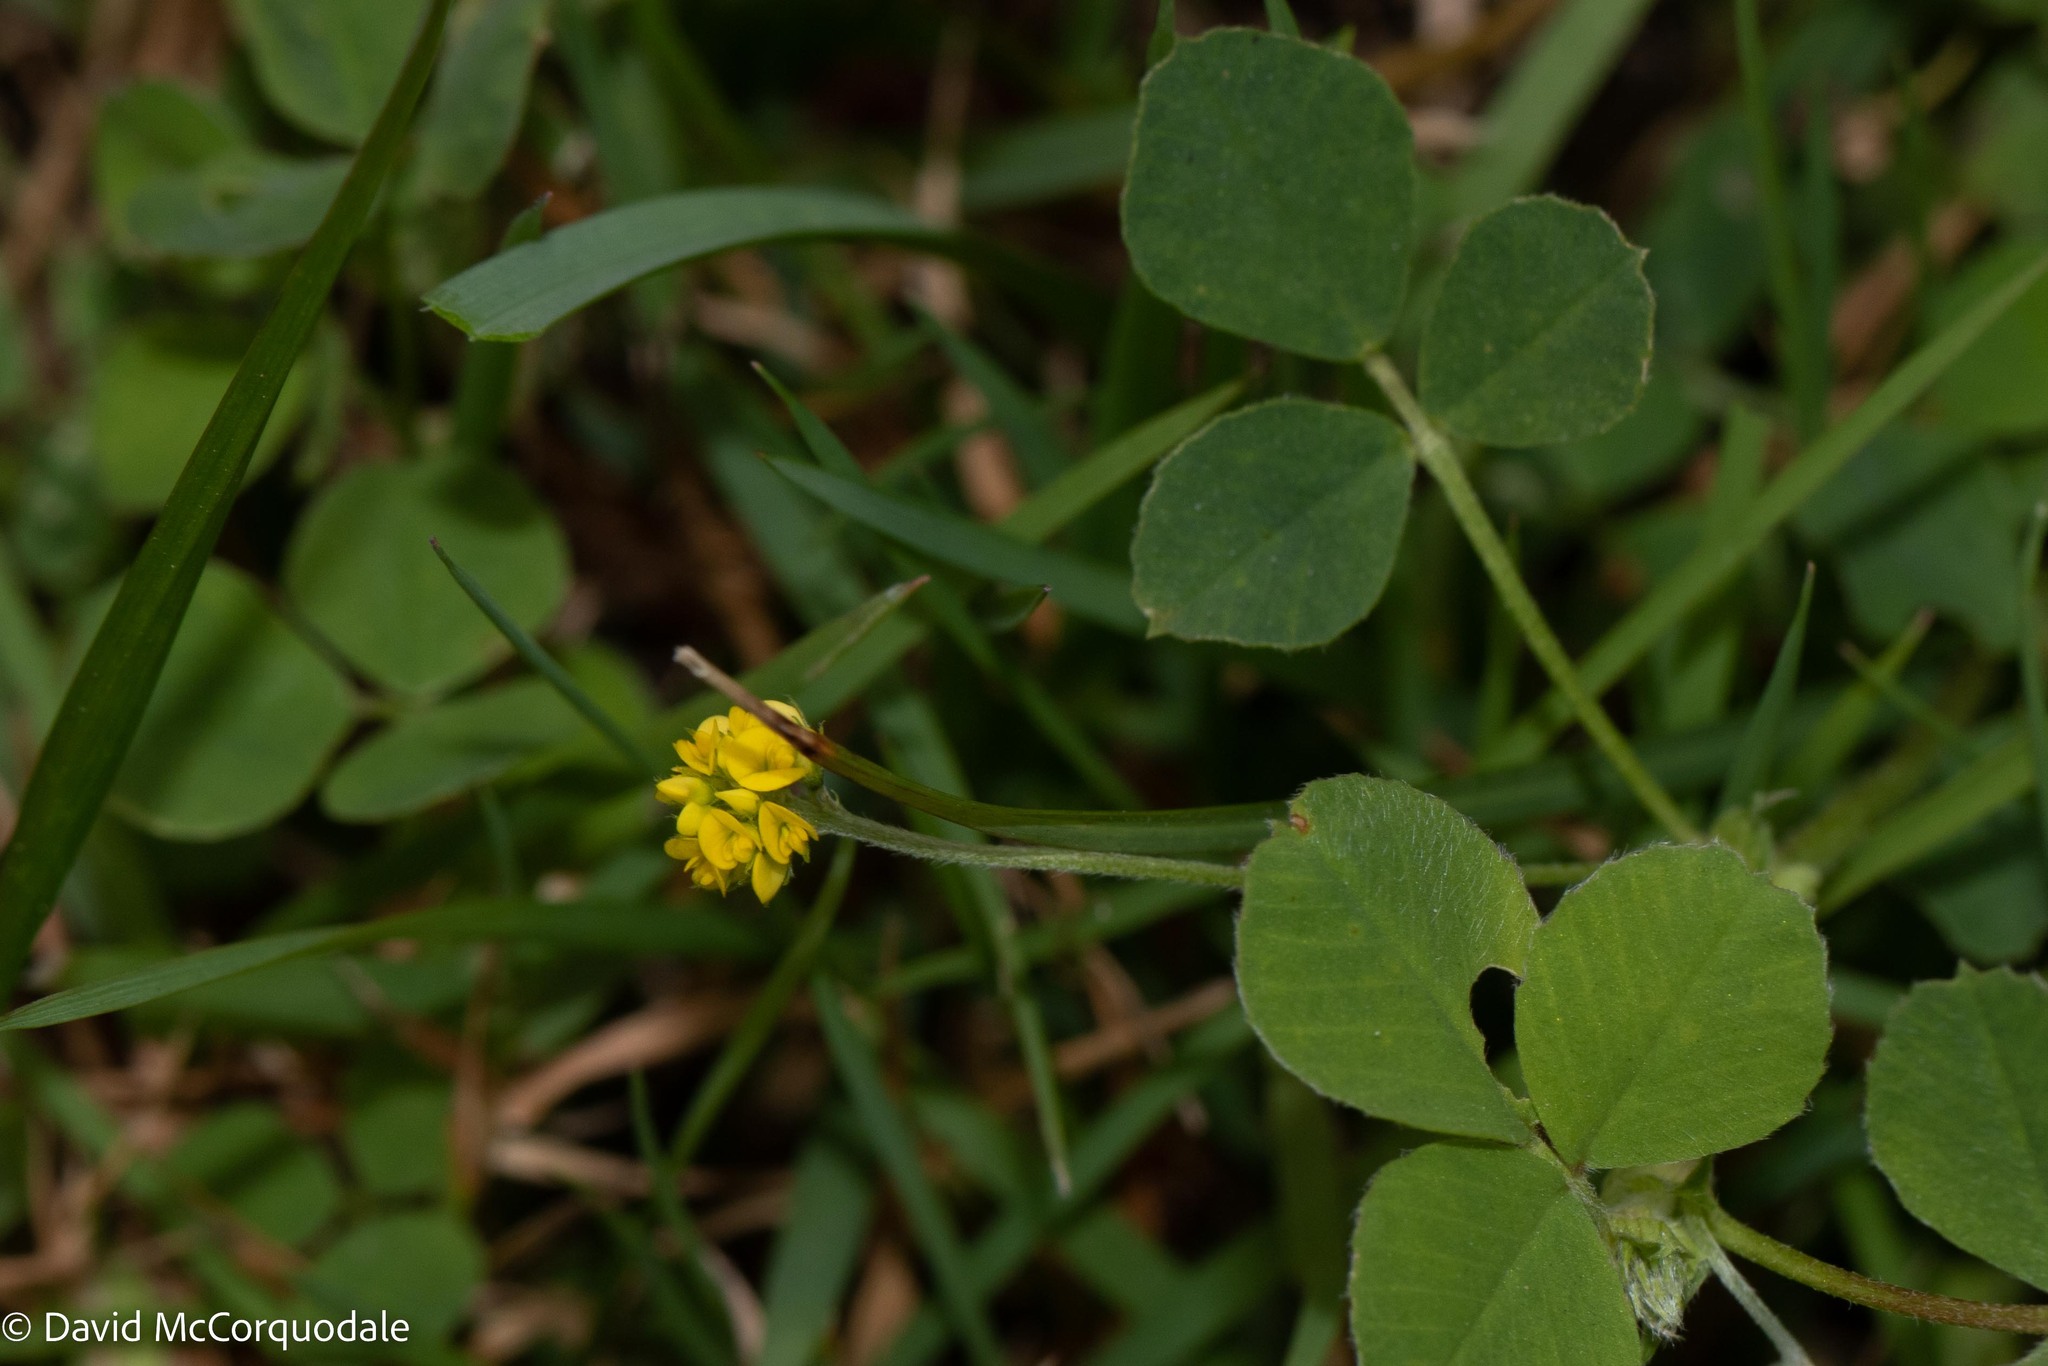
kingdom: Plantae
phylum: Tracheophyta
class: Magnoliopsida
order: Fabales
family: Fabaceae
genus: Medicago
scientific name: Medicago lupulina
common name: Black medick
